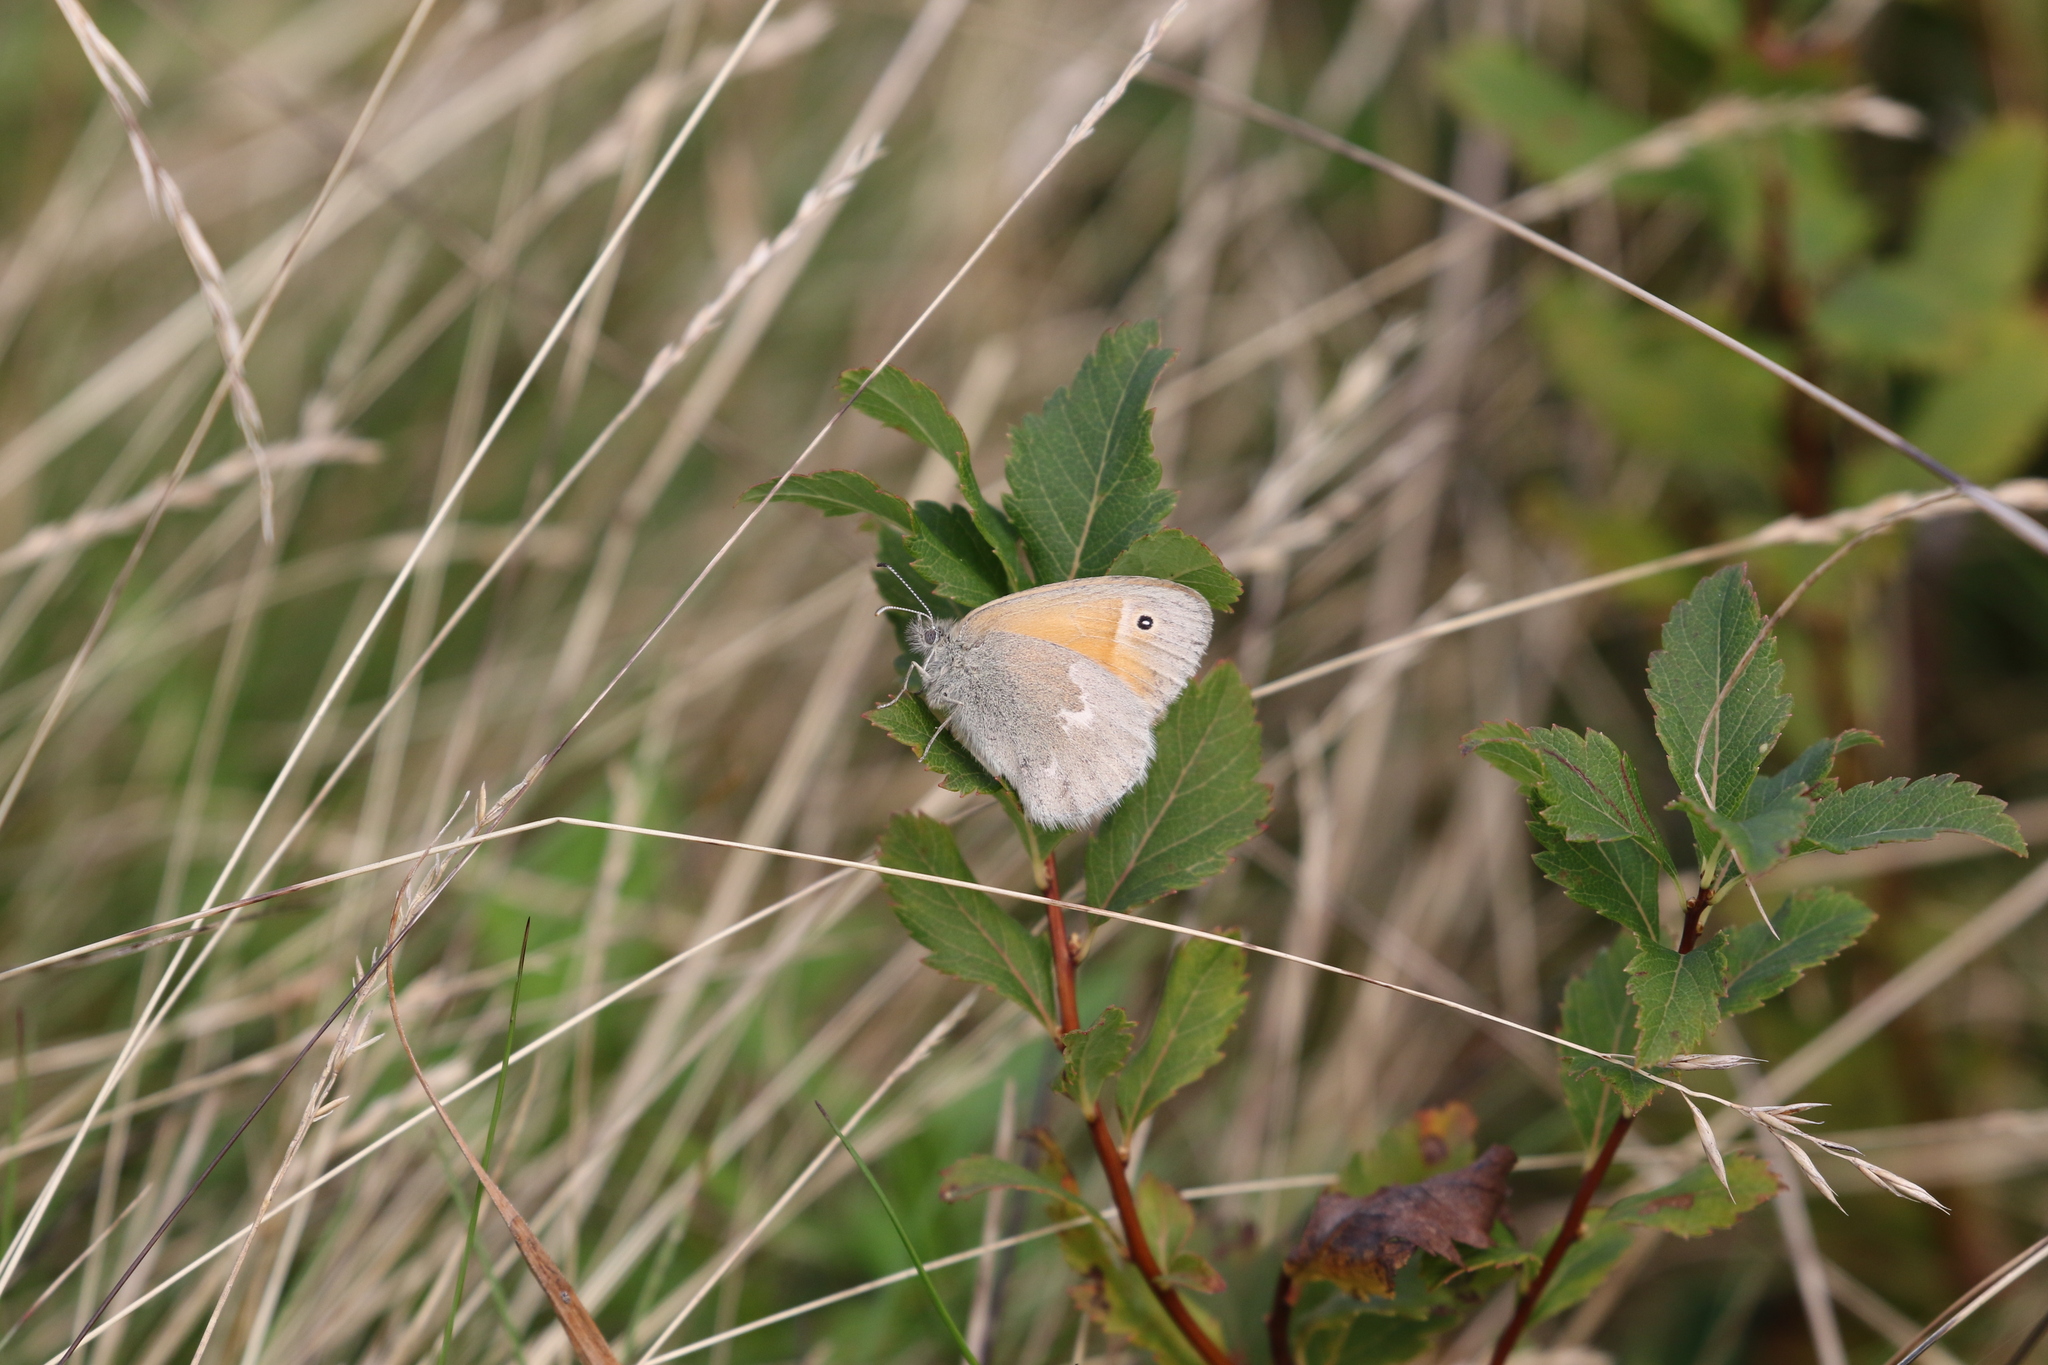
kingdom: Animalia
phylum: Arthropoda
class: Insecta
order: Lepidoptera
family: Nymphalidae
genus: Coenonympha
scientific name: Coenonympha california
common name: Common ringlet
